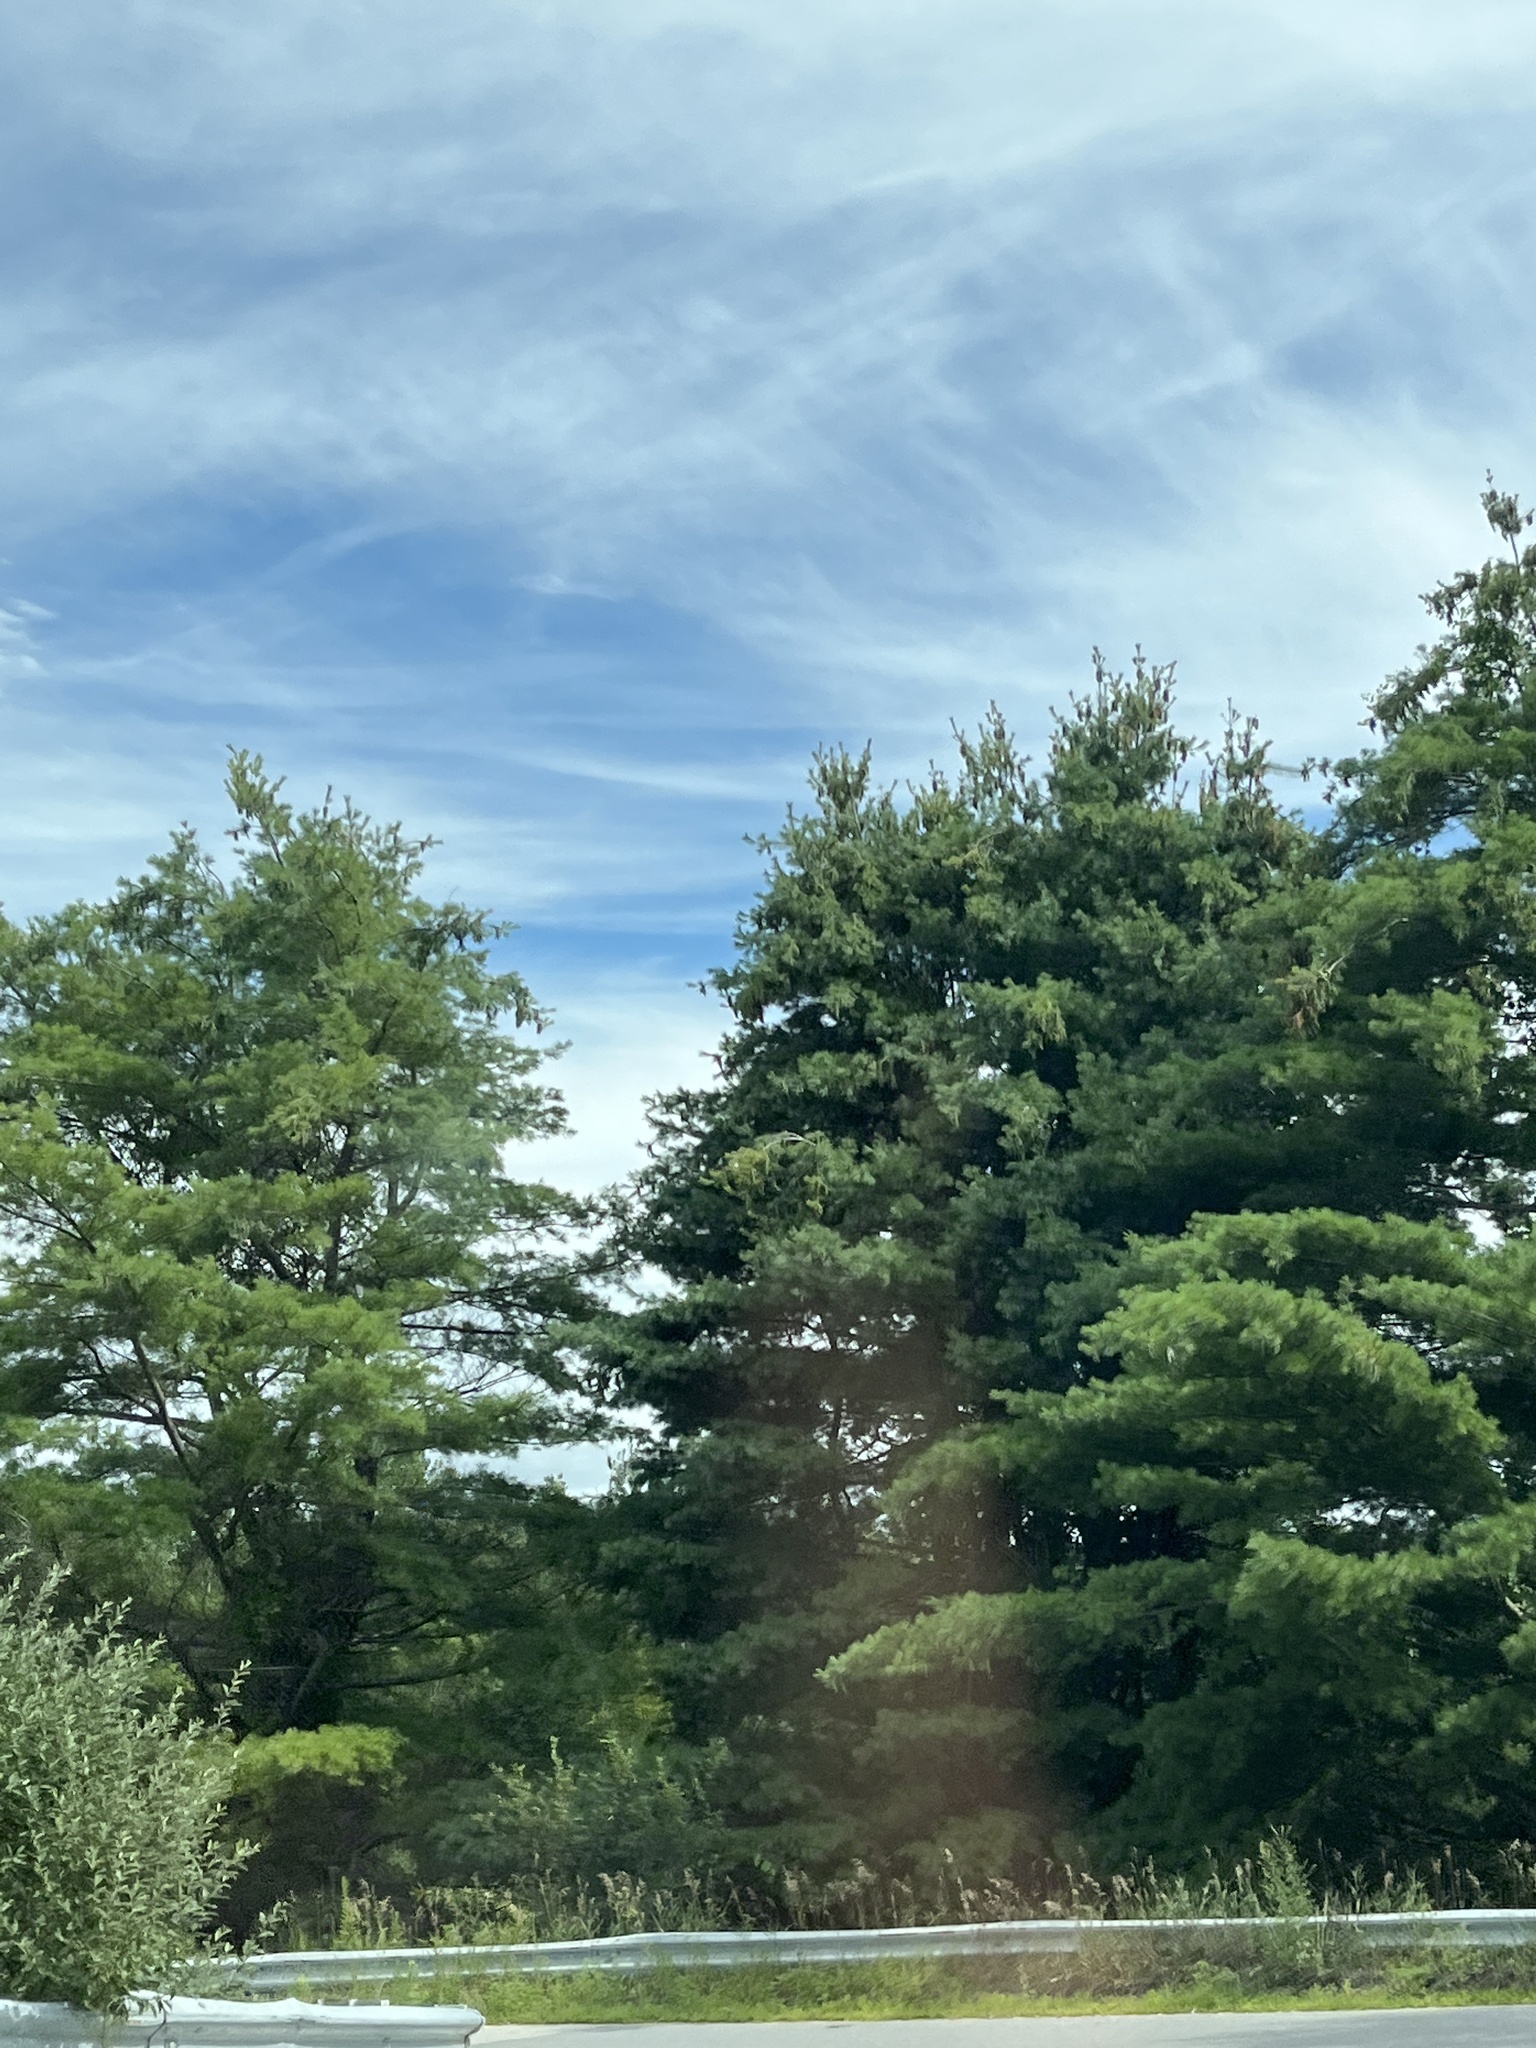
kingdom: Plantae
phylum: Tracheophyta
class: Pinopsida
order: Pinales
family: Pinaceae
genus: Pinus
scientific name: Pinus strobus
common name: Weymouth pine
